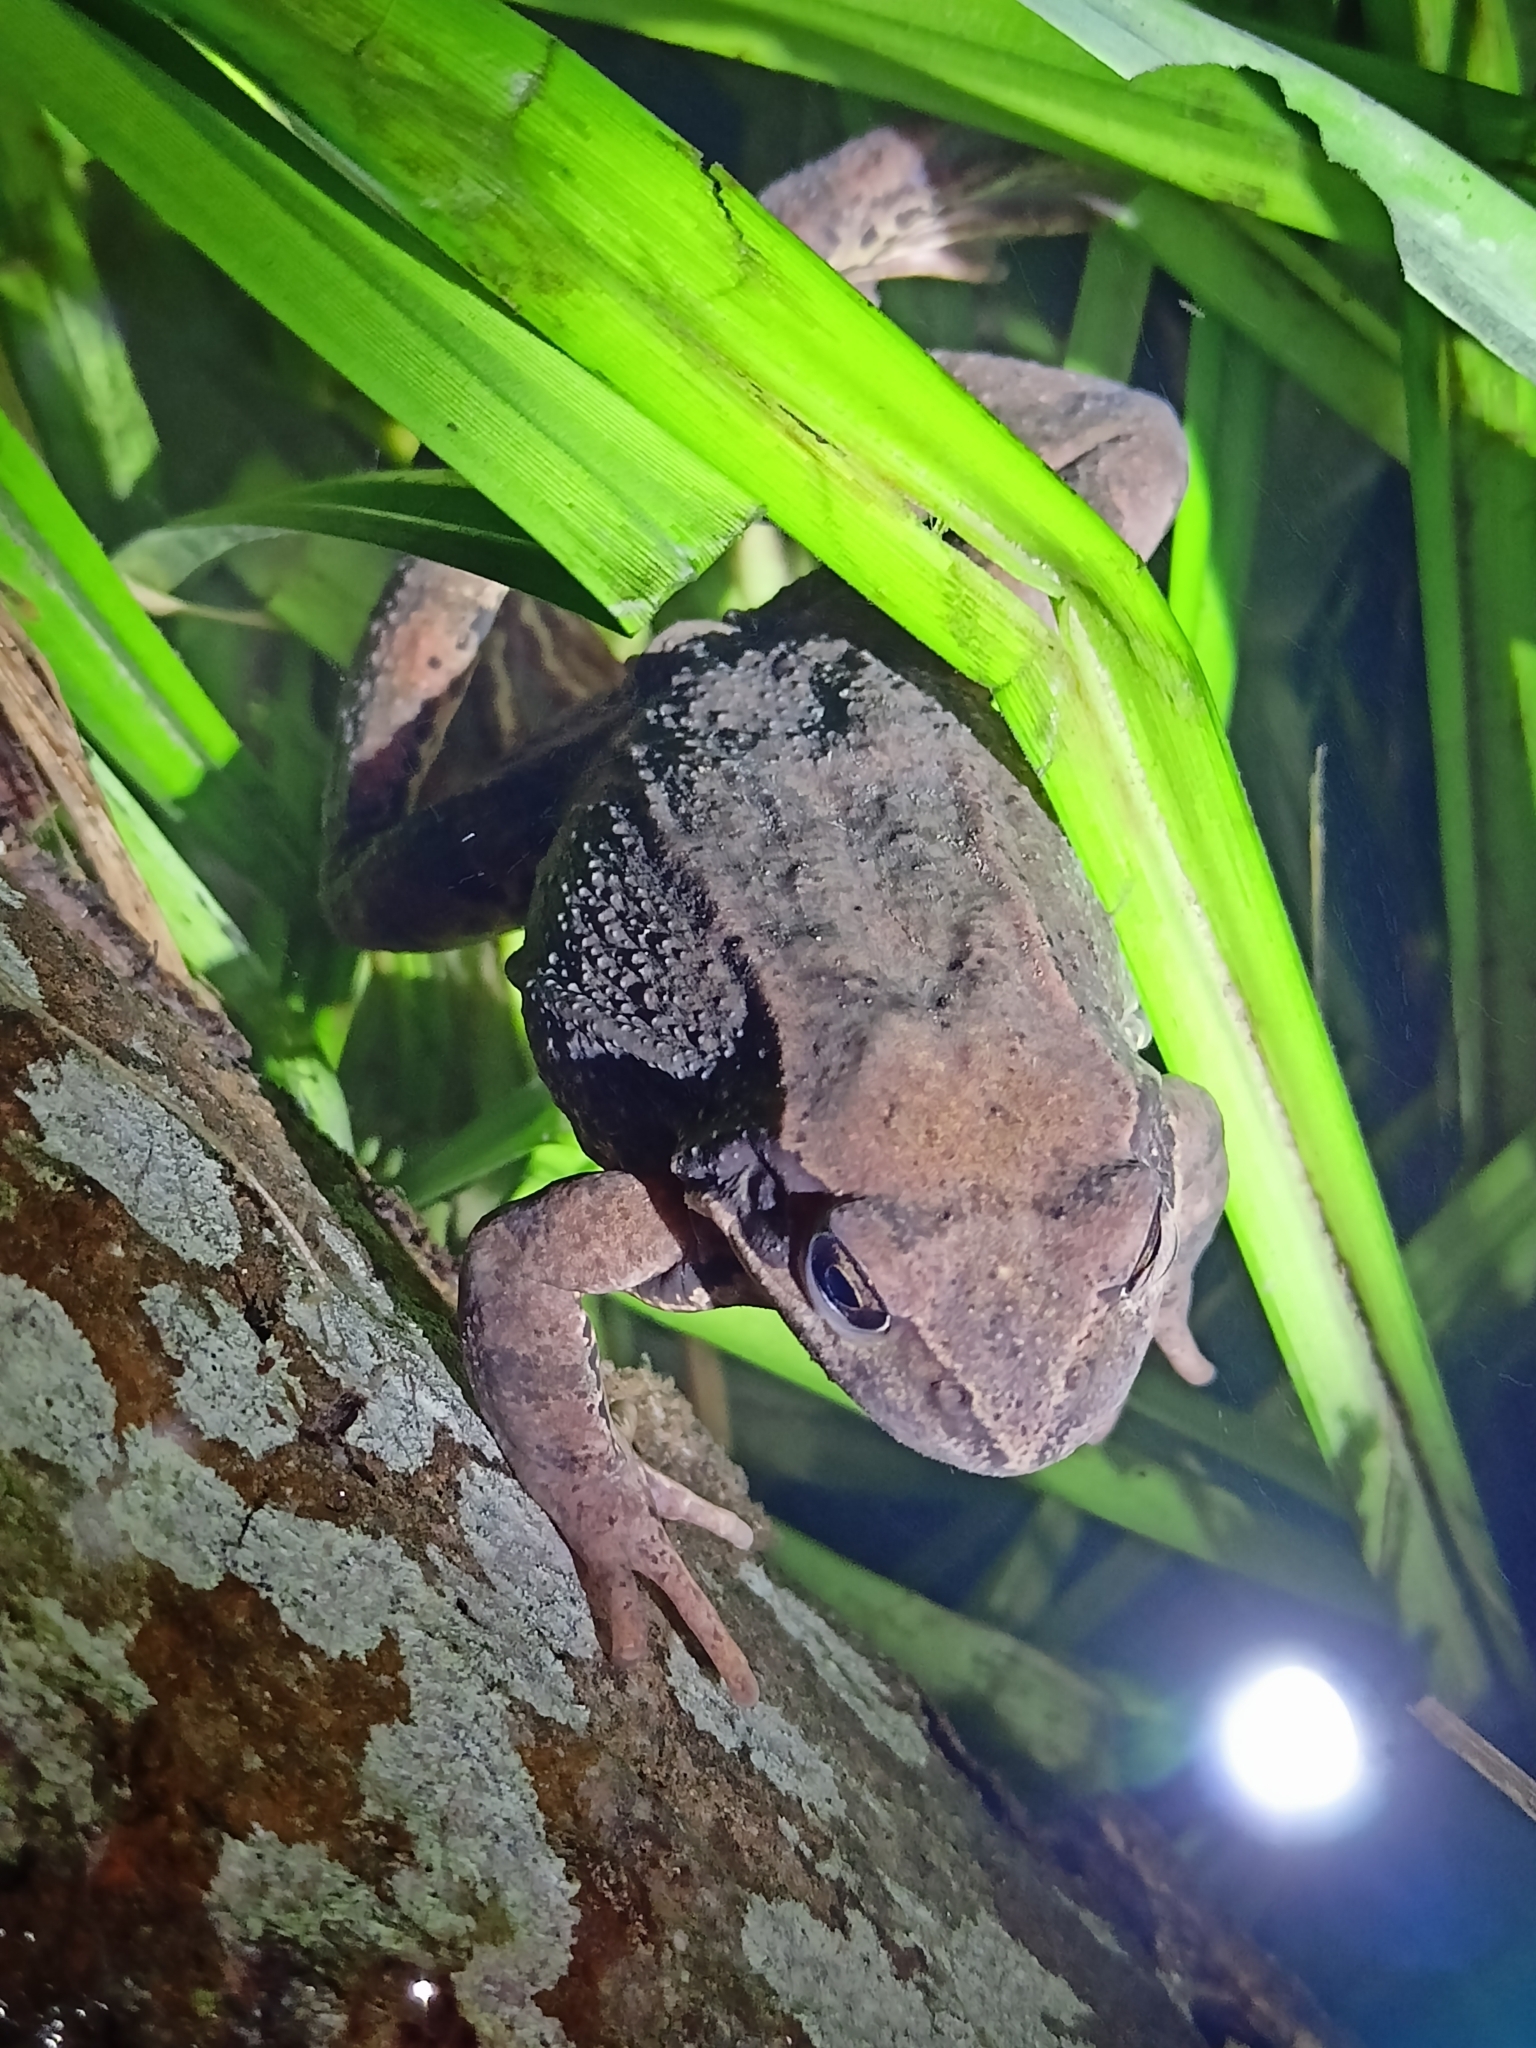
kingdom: Animalia
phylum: Chordata
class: Amphibia
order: Anura
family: Ranidae
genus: Rana
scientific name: Rana temporaria
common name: Common frog
